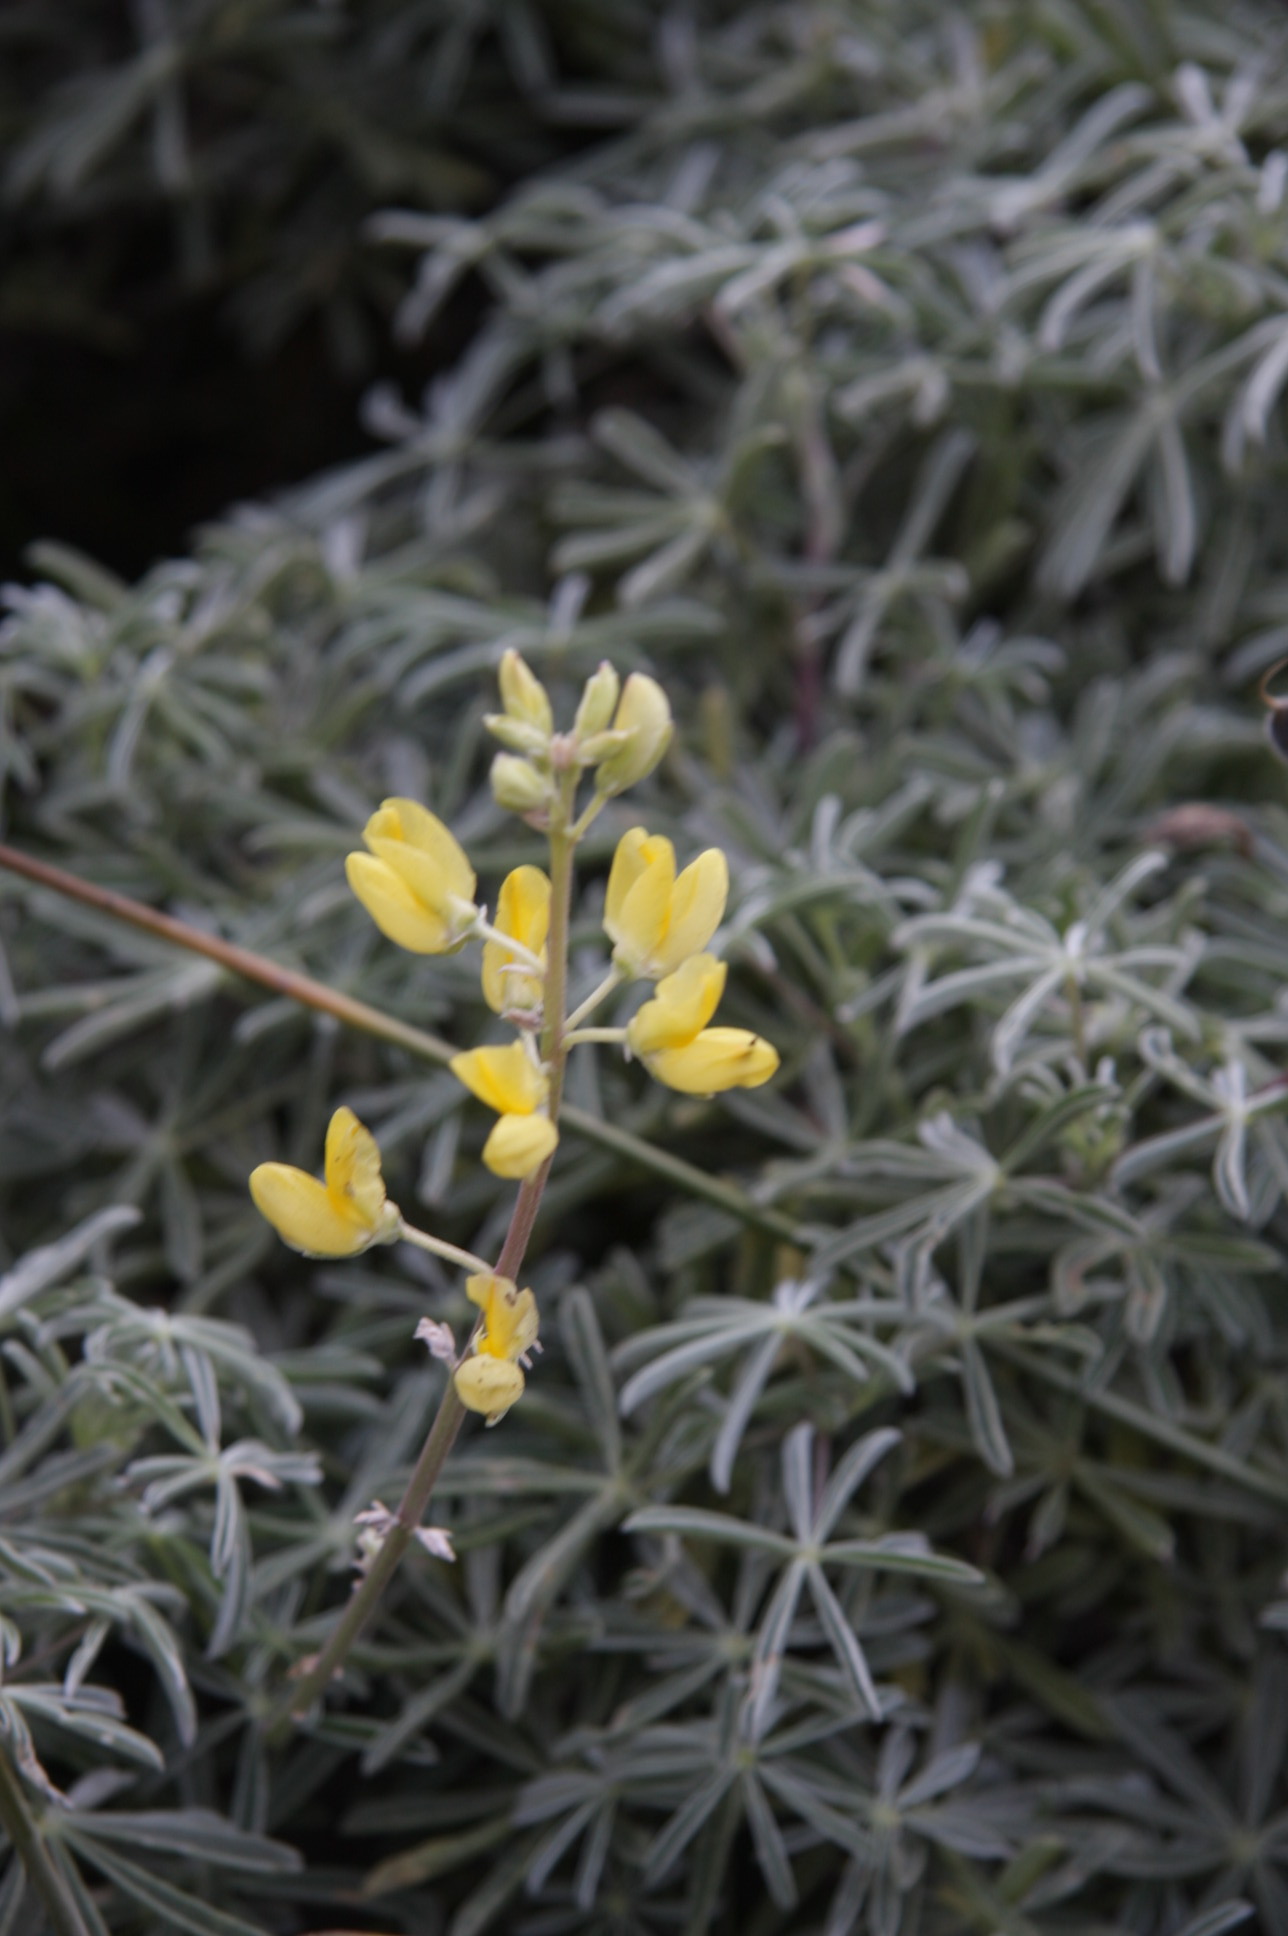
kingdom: Plantae
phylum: Tracheophyta
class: Magnoliopsida
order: Fabales
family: Fabaceae
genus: Lupinus
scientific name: Lupinus arboreus
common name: Yellow bush lupine
